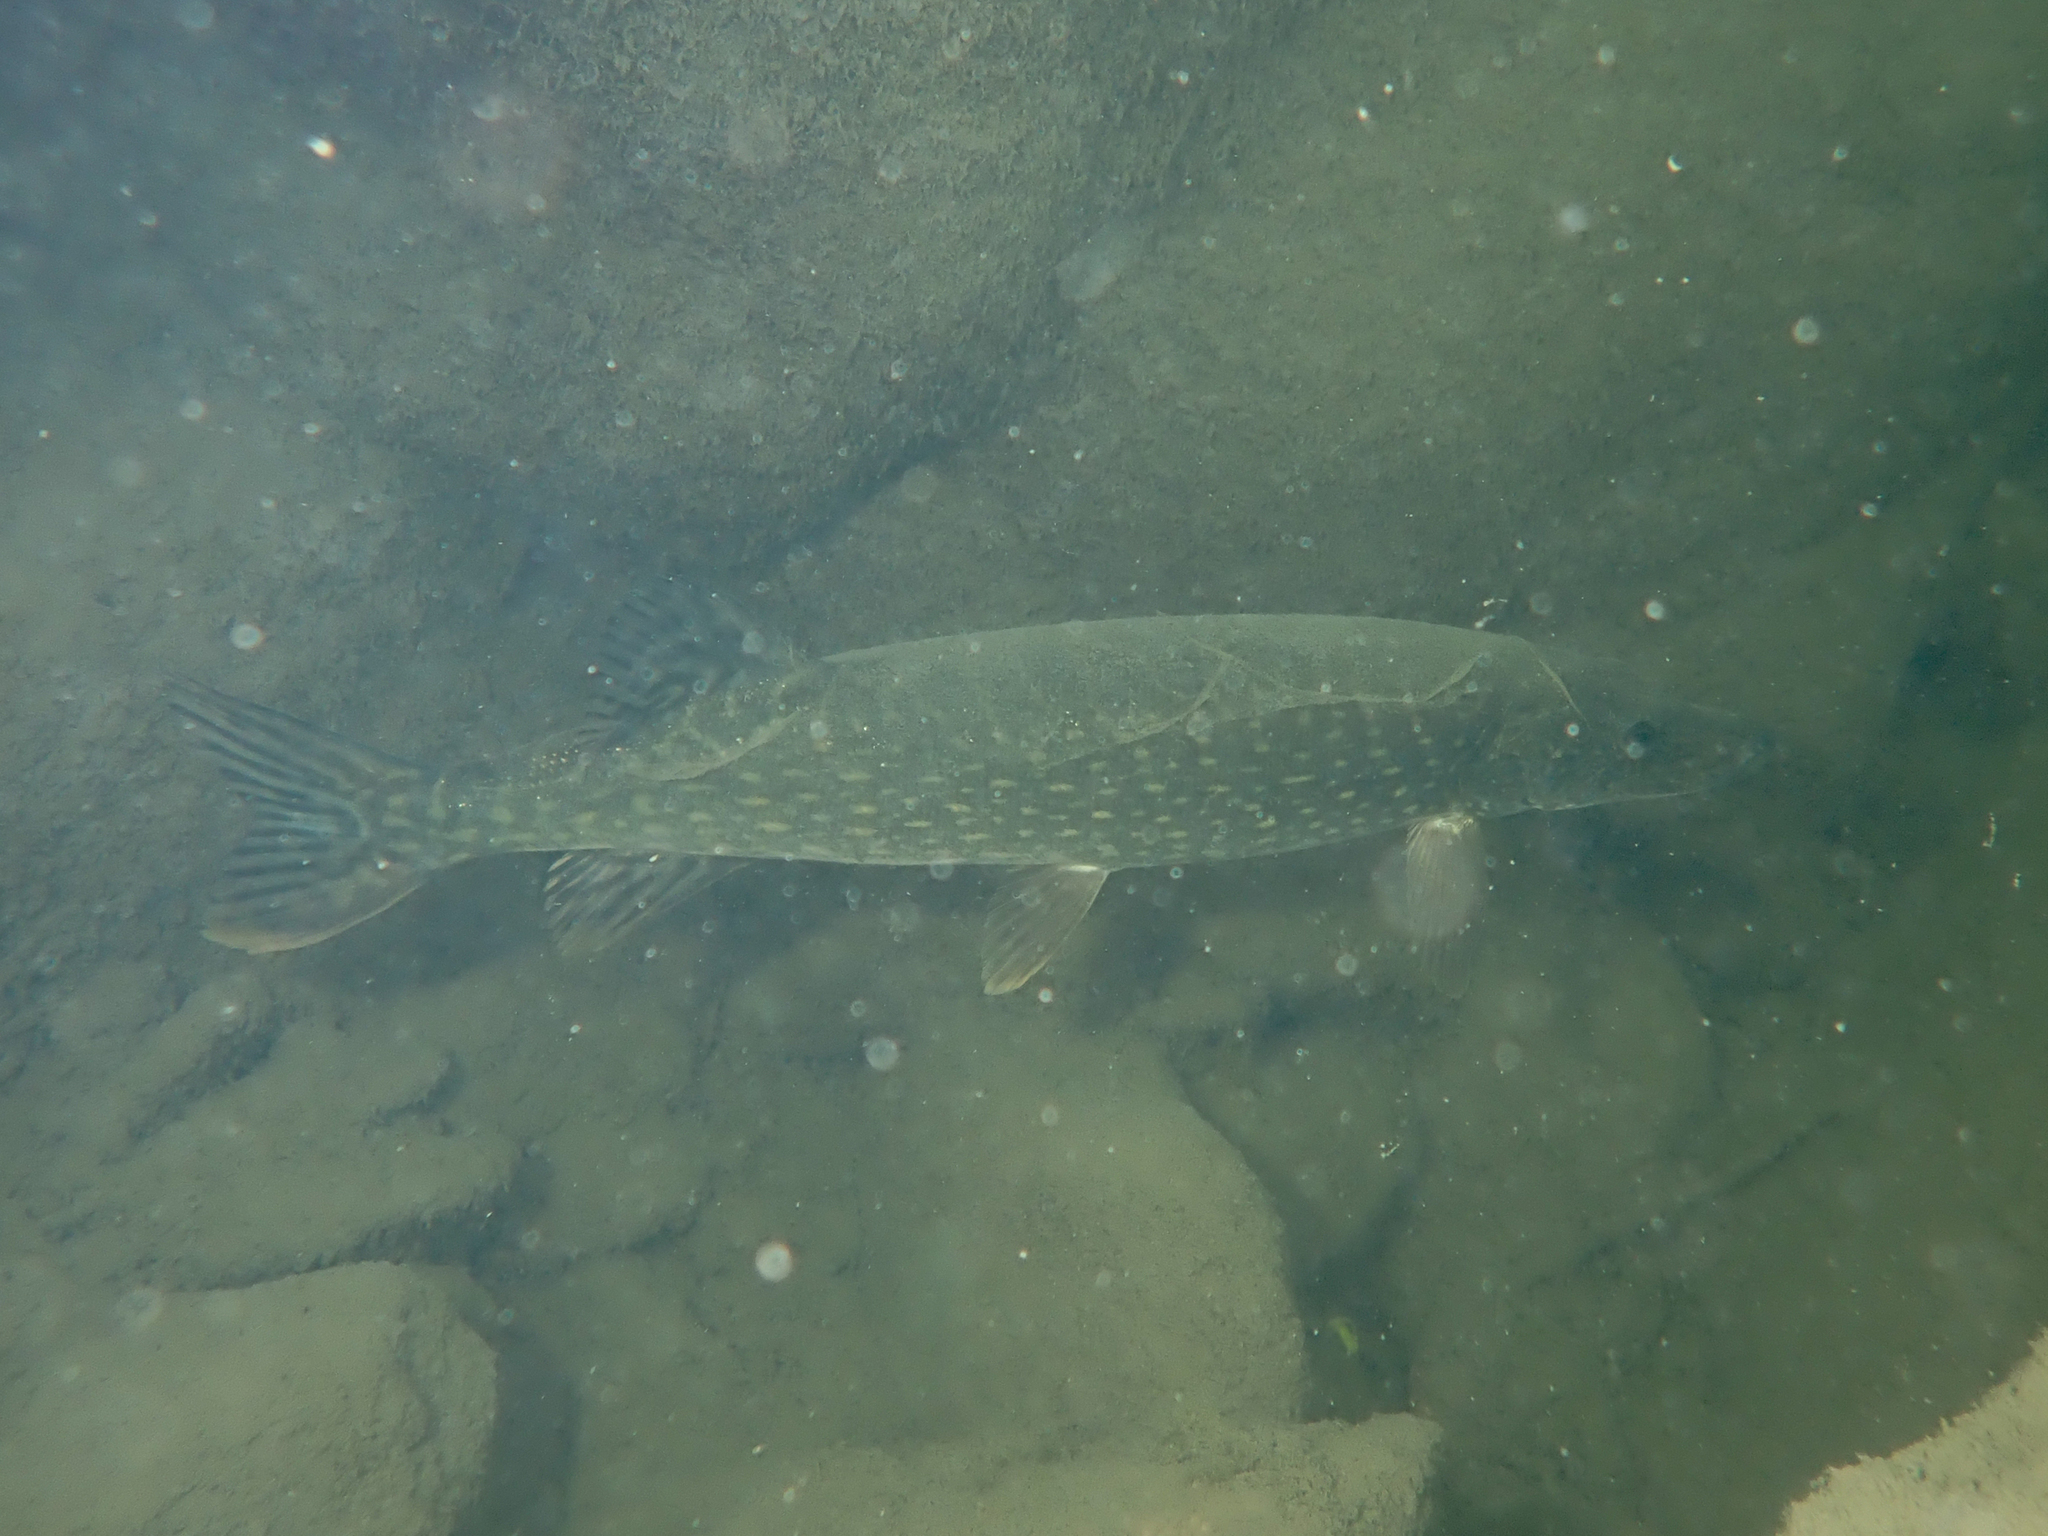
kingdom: Animalia
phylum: Chordata
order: Esociformes
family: Esocidae
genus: Esox
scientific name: Esox lucius
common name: Northern pike
